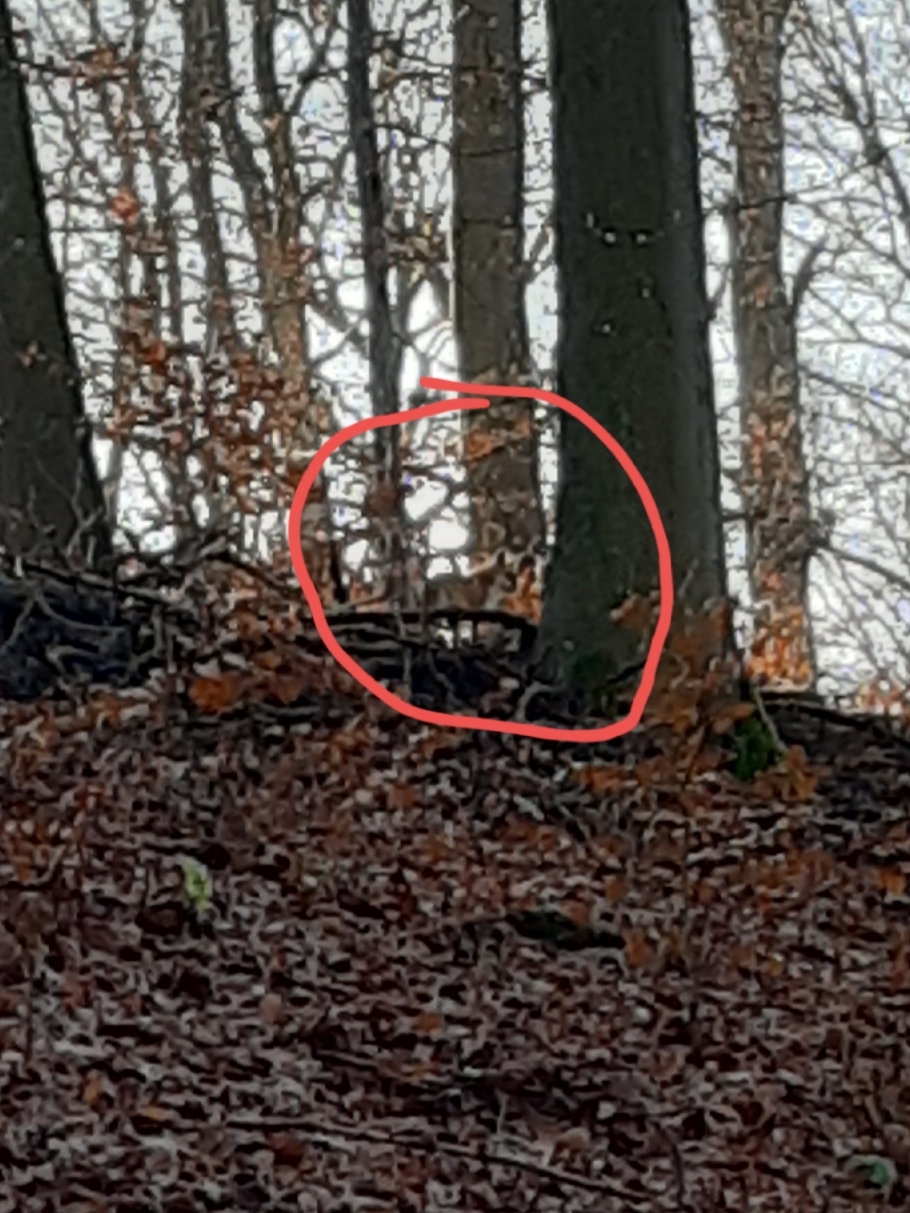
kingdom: Animalia
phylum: Chordata
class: Mammalia
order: Carnivora
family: Canidae
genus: Vulpes
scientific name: Vulpes vulpes
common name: Red fox
